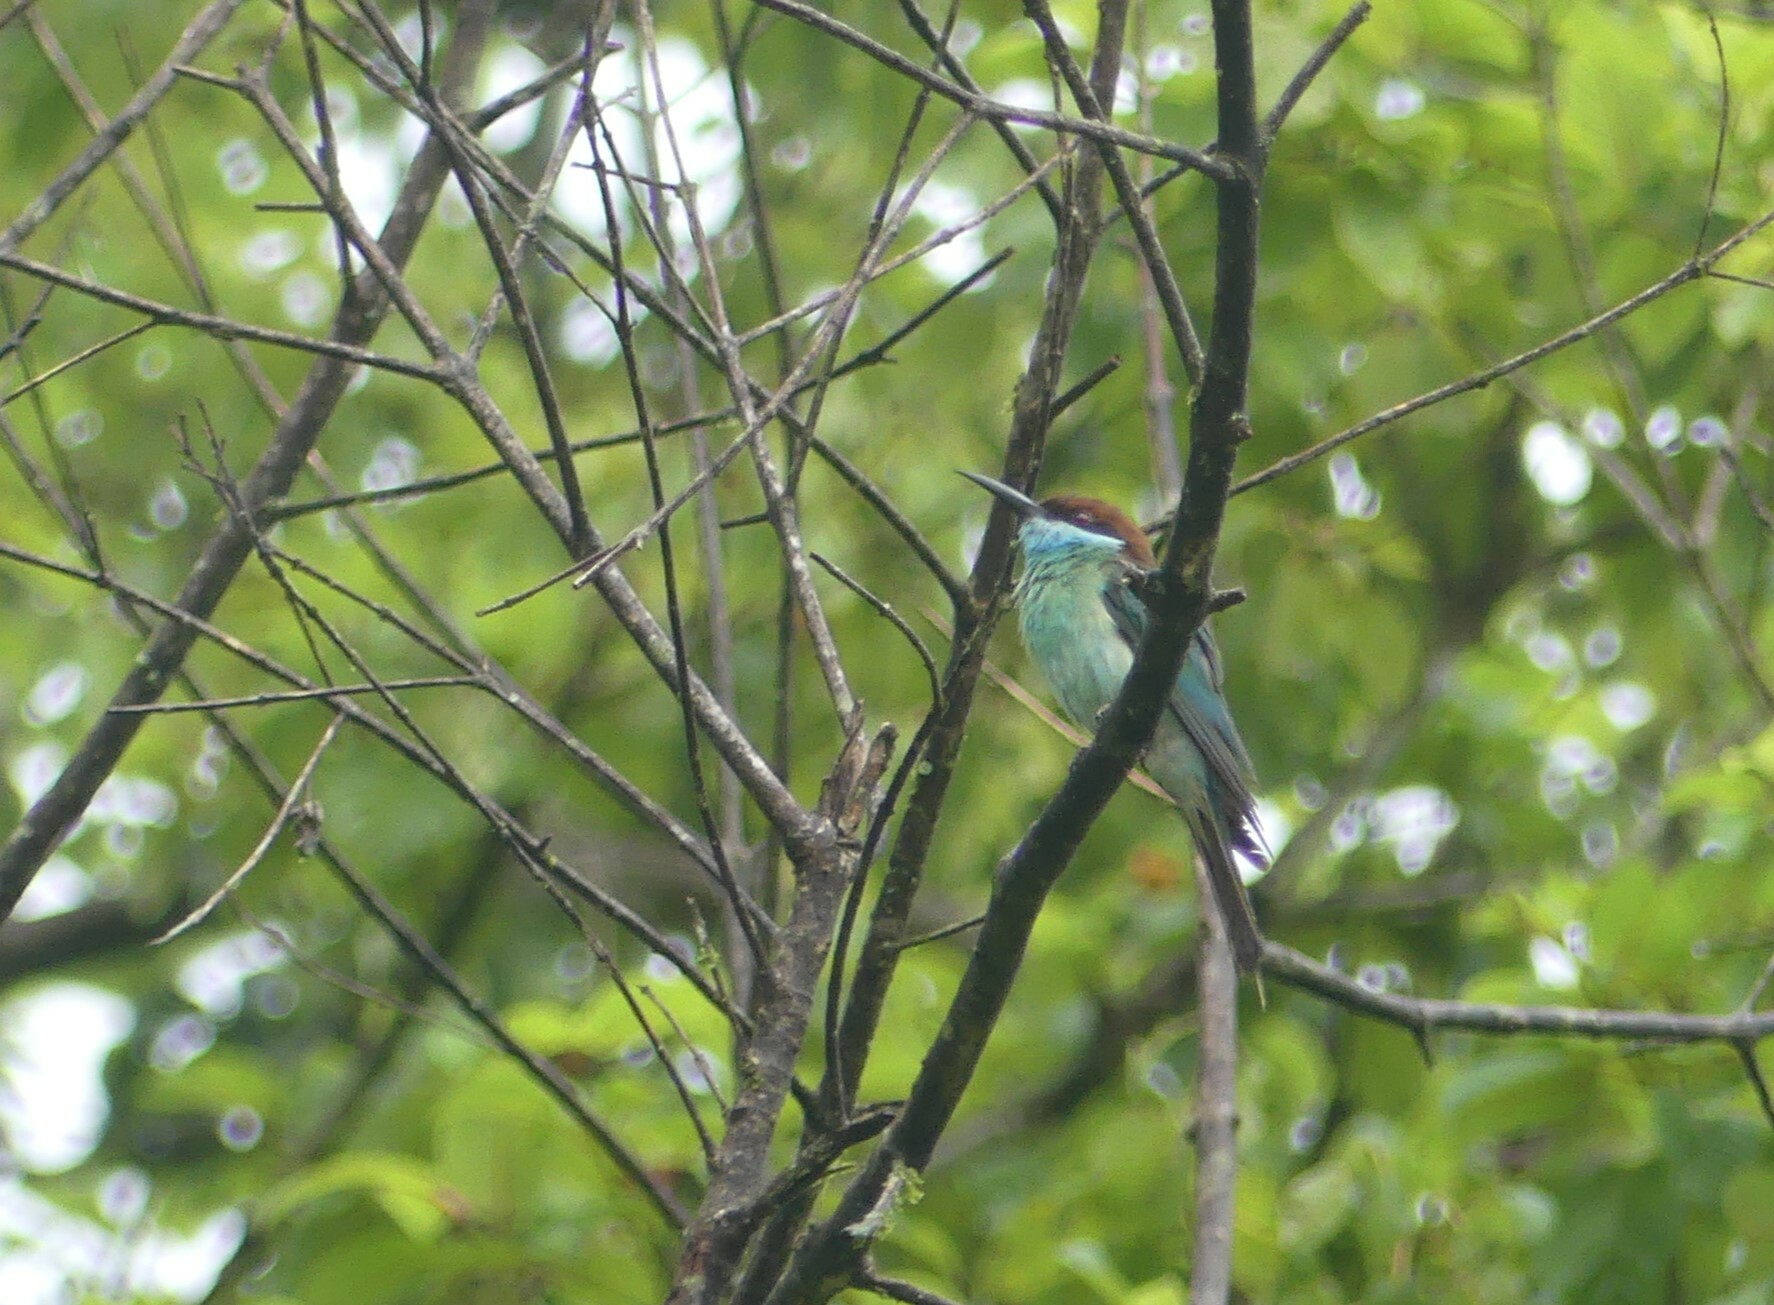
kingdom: Animalia
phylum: Chordata
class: Aves
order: Coraciiformes
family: Meropidae
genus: Merops
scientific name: Merops viridis
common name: Blue-throated bee-eater
